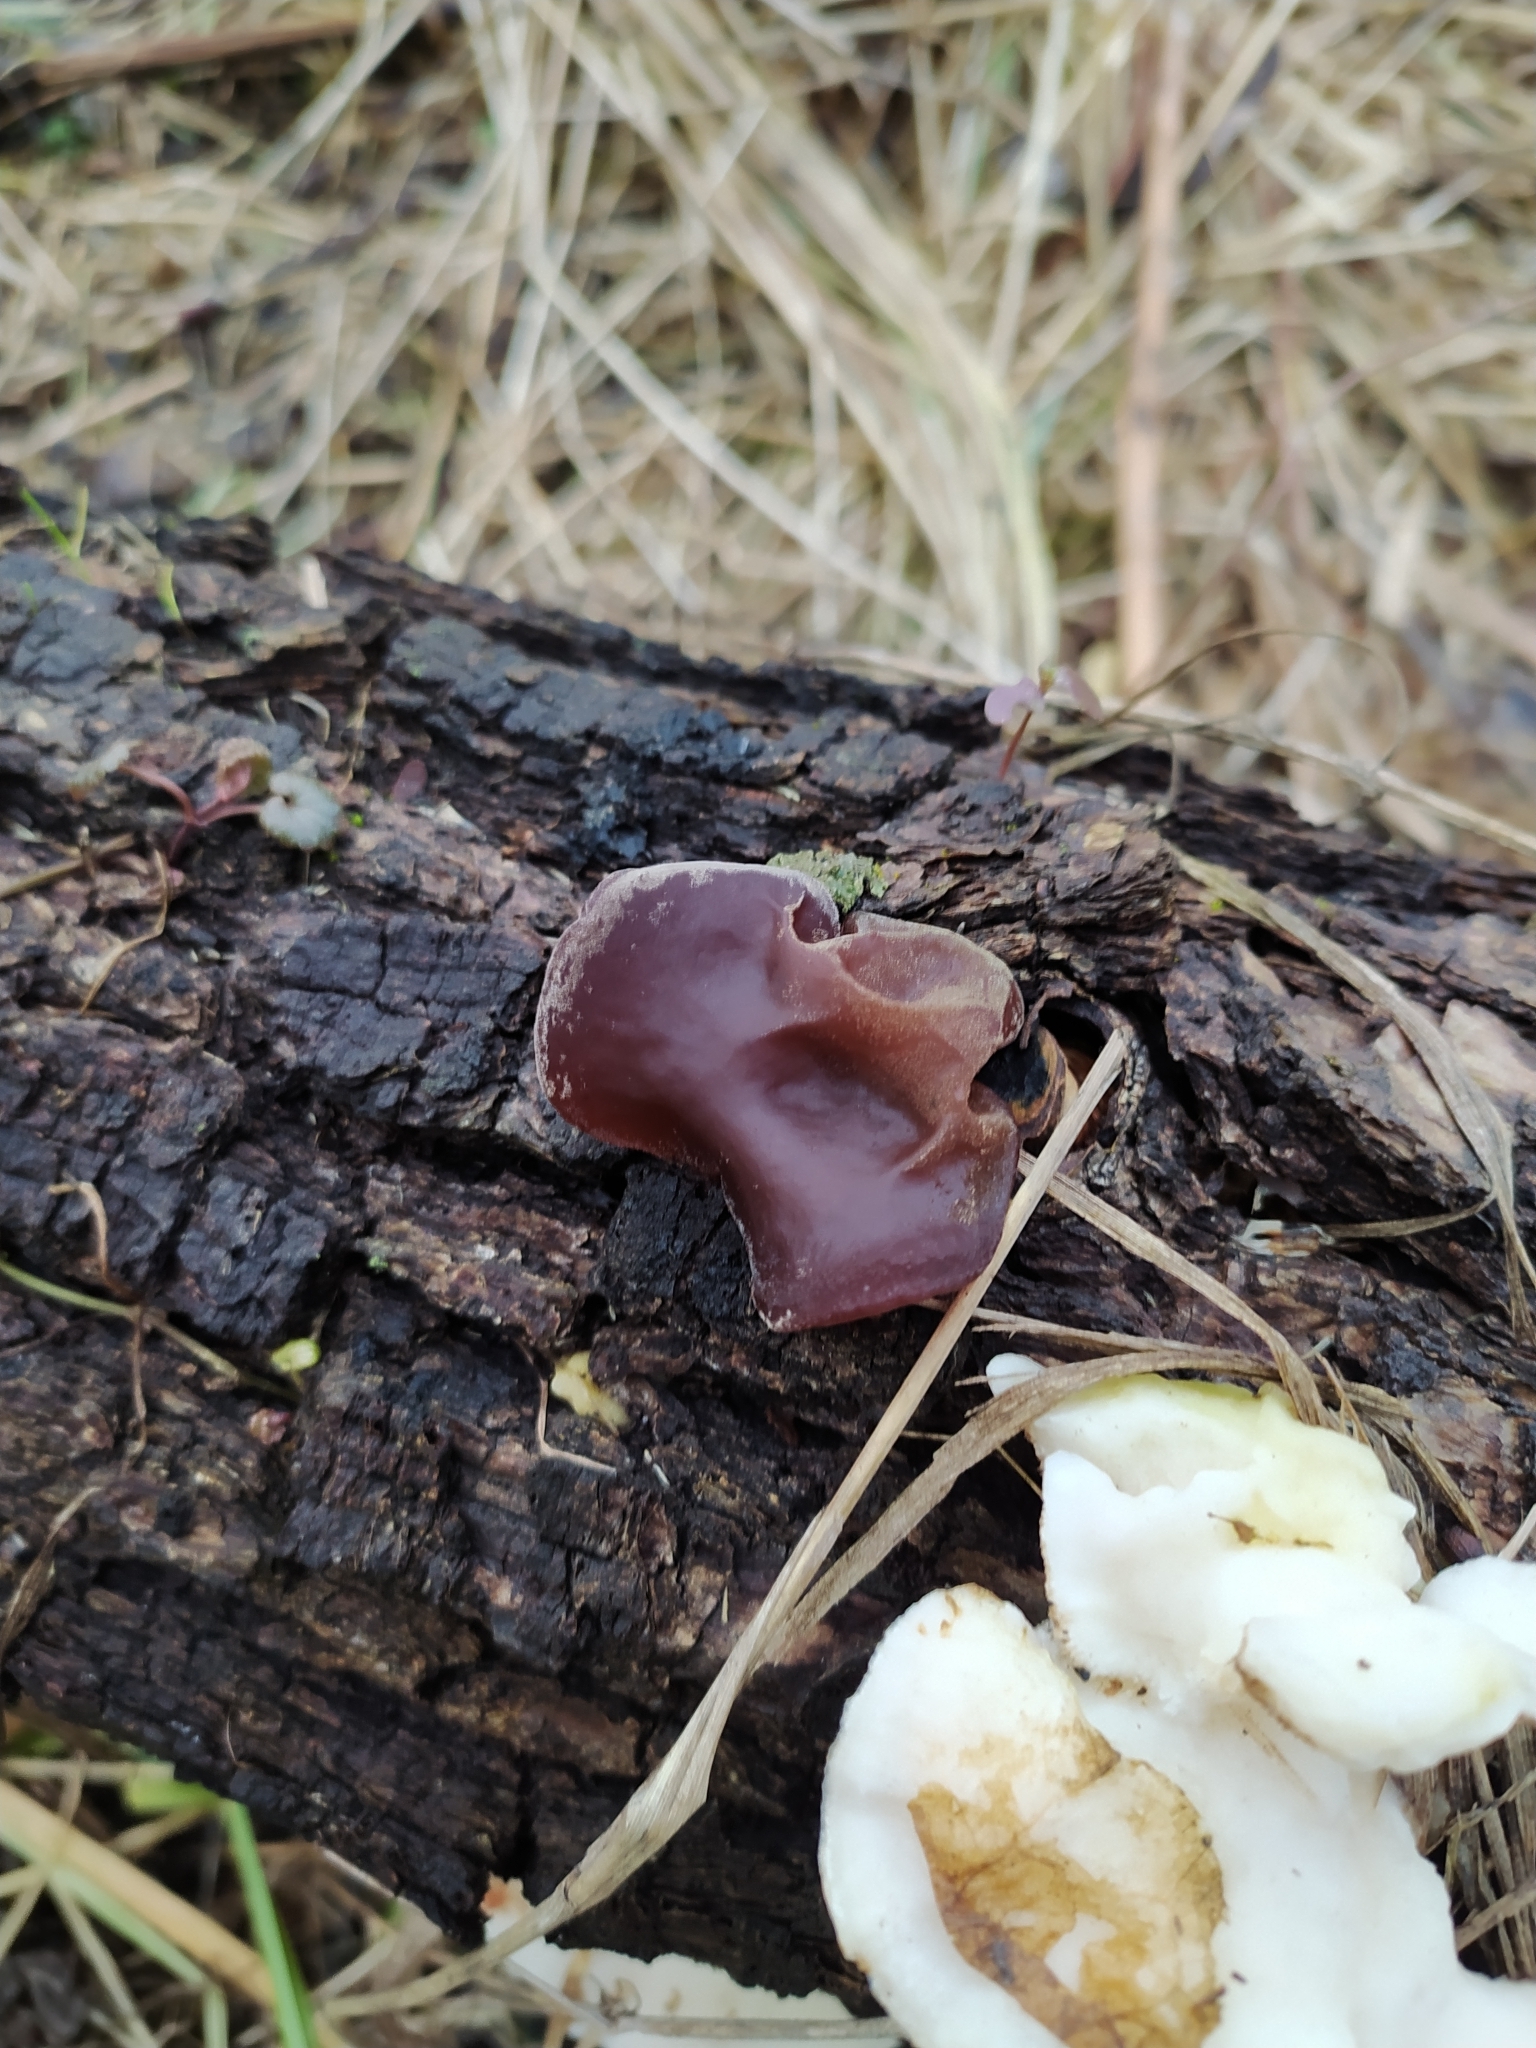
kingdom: Fungi
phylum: Basidiomycota
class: Agaricomycetes
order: Auriculariales
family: Auriculariaceae
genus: Auricularia
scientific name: Auricularia auricula-judae
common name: Jelly ear
